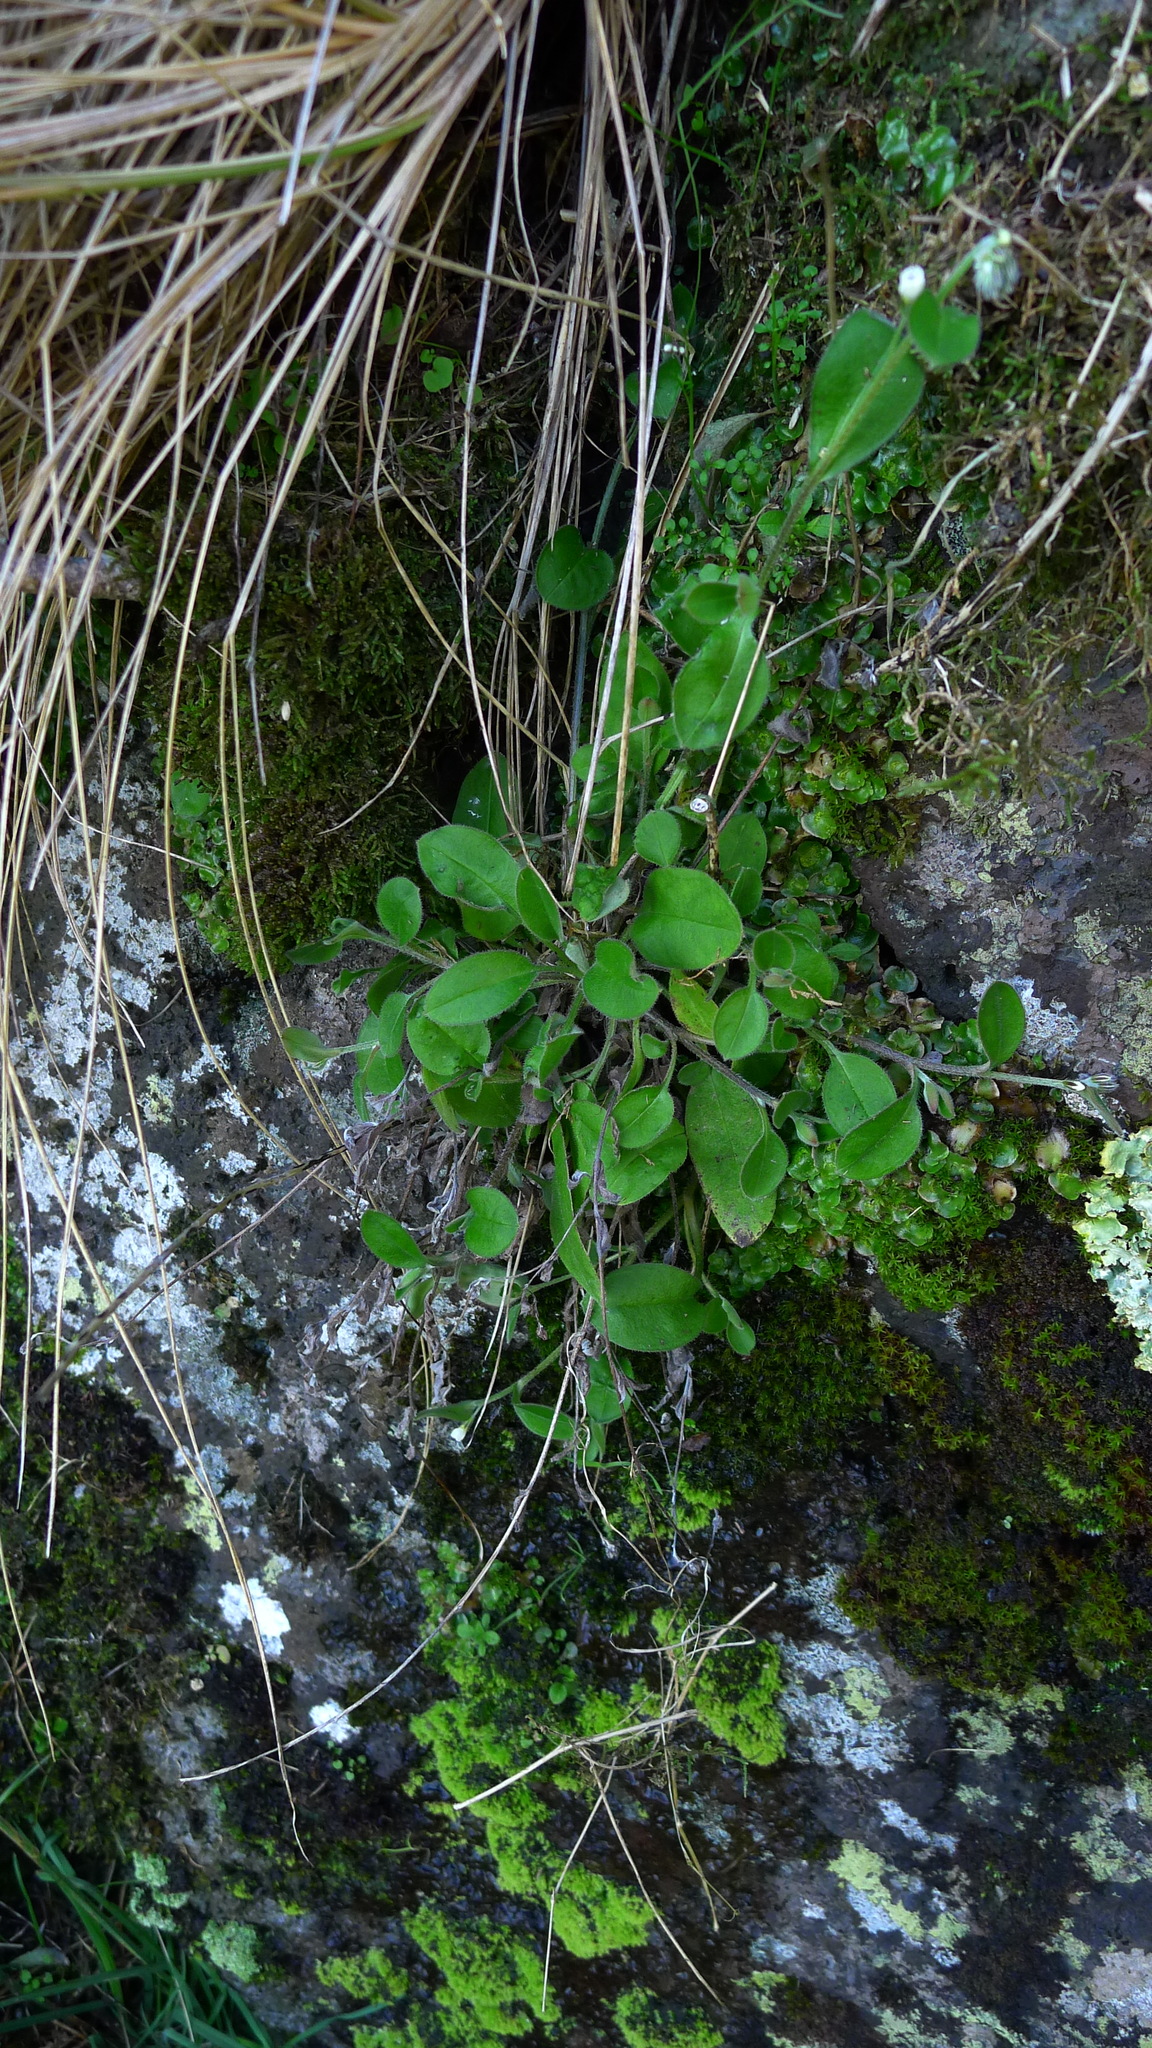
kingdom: Plantae
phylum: Tracheophyta
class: Magnoliopsida
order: Boraginales
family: Boraginaceae
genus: Myosotis
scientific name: Myosotis australis
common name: Australian forget-me-not
